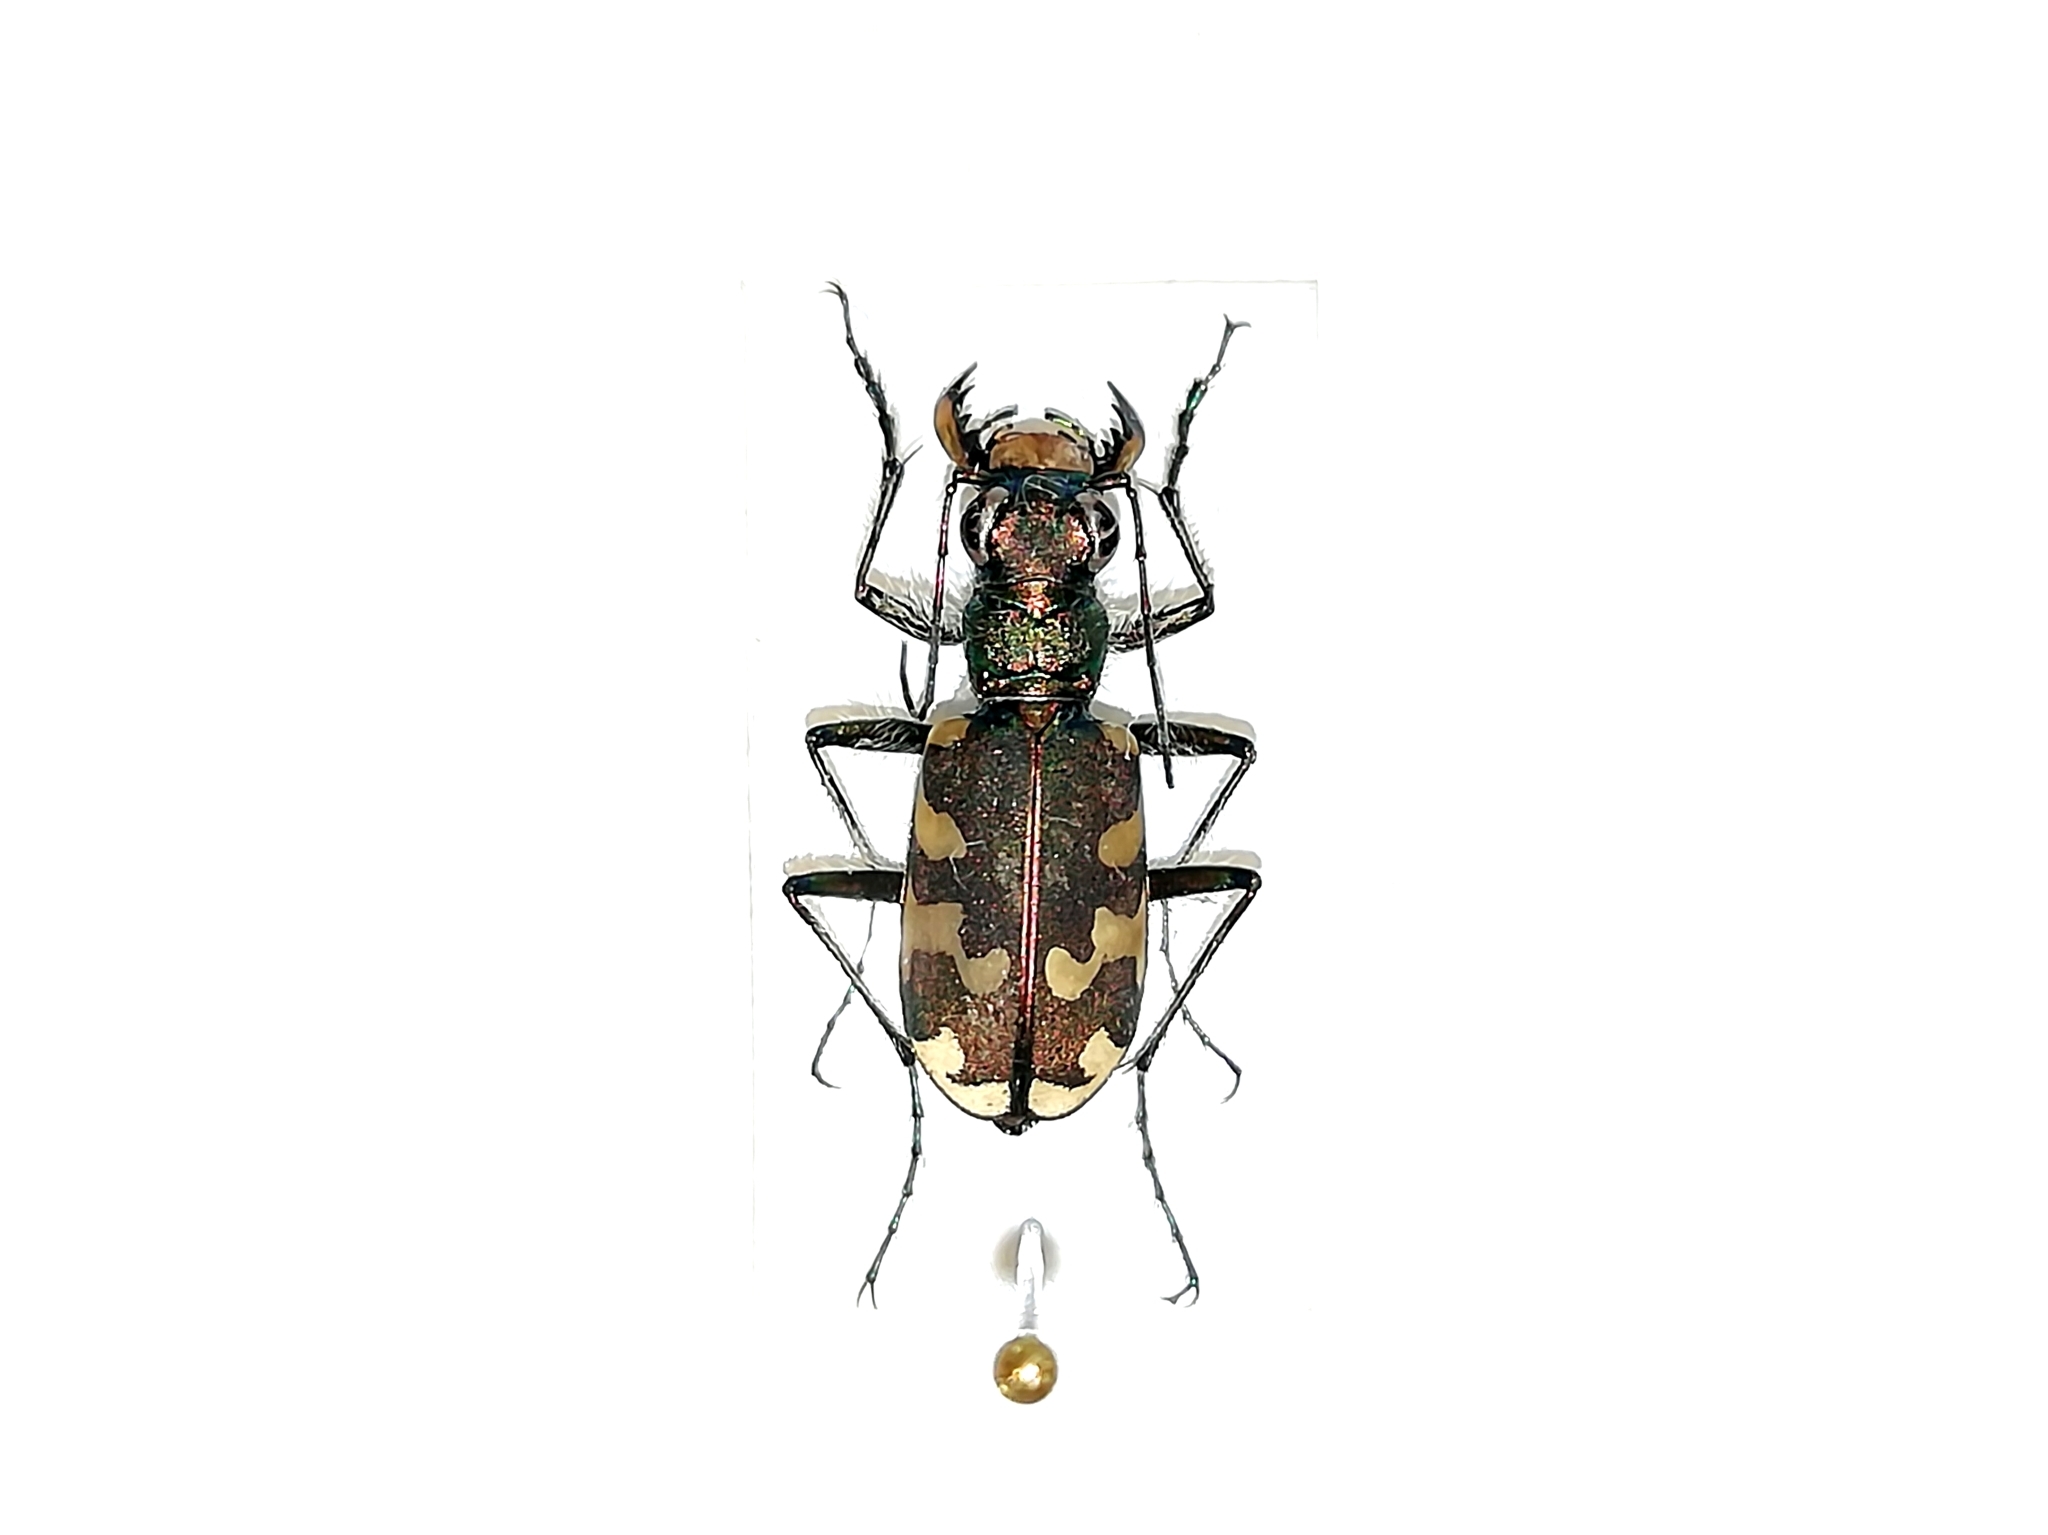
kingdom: Animalia
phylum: Arthropoda
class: Insecta
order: Coleoptera
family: Carabidae
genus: Cicindela
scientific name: Cicindela hybrida
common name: Northern dune tiger beetle
